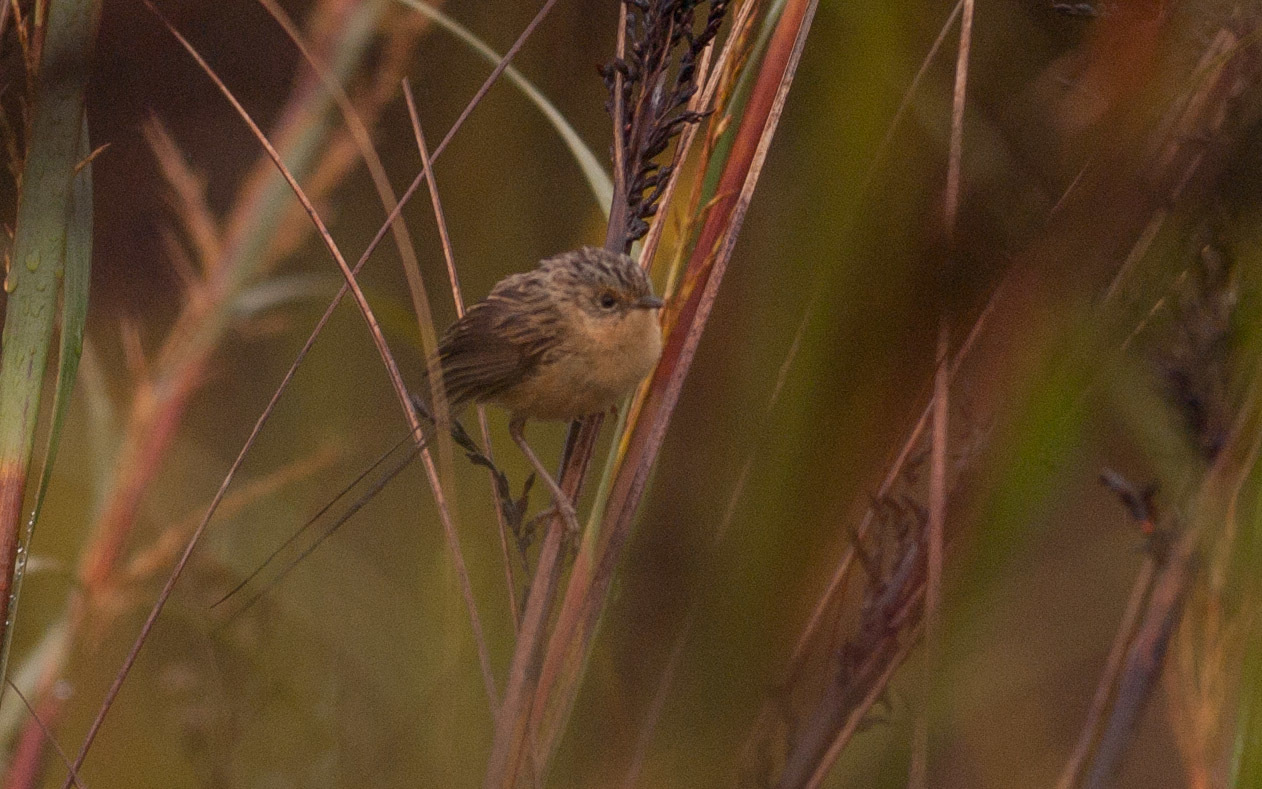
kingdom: Animalia
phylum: Chordata
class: Aves
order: Passeriformes
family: Maluridae
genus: Stipiturus
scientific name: Stipiturus malachurus
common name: Southern emu-wren
